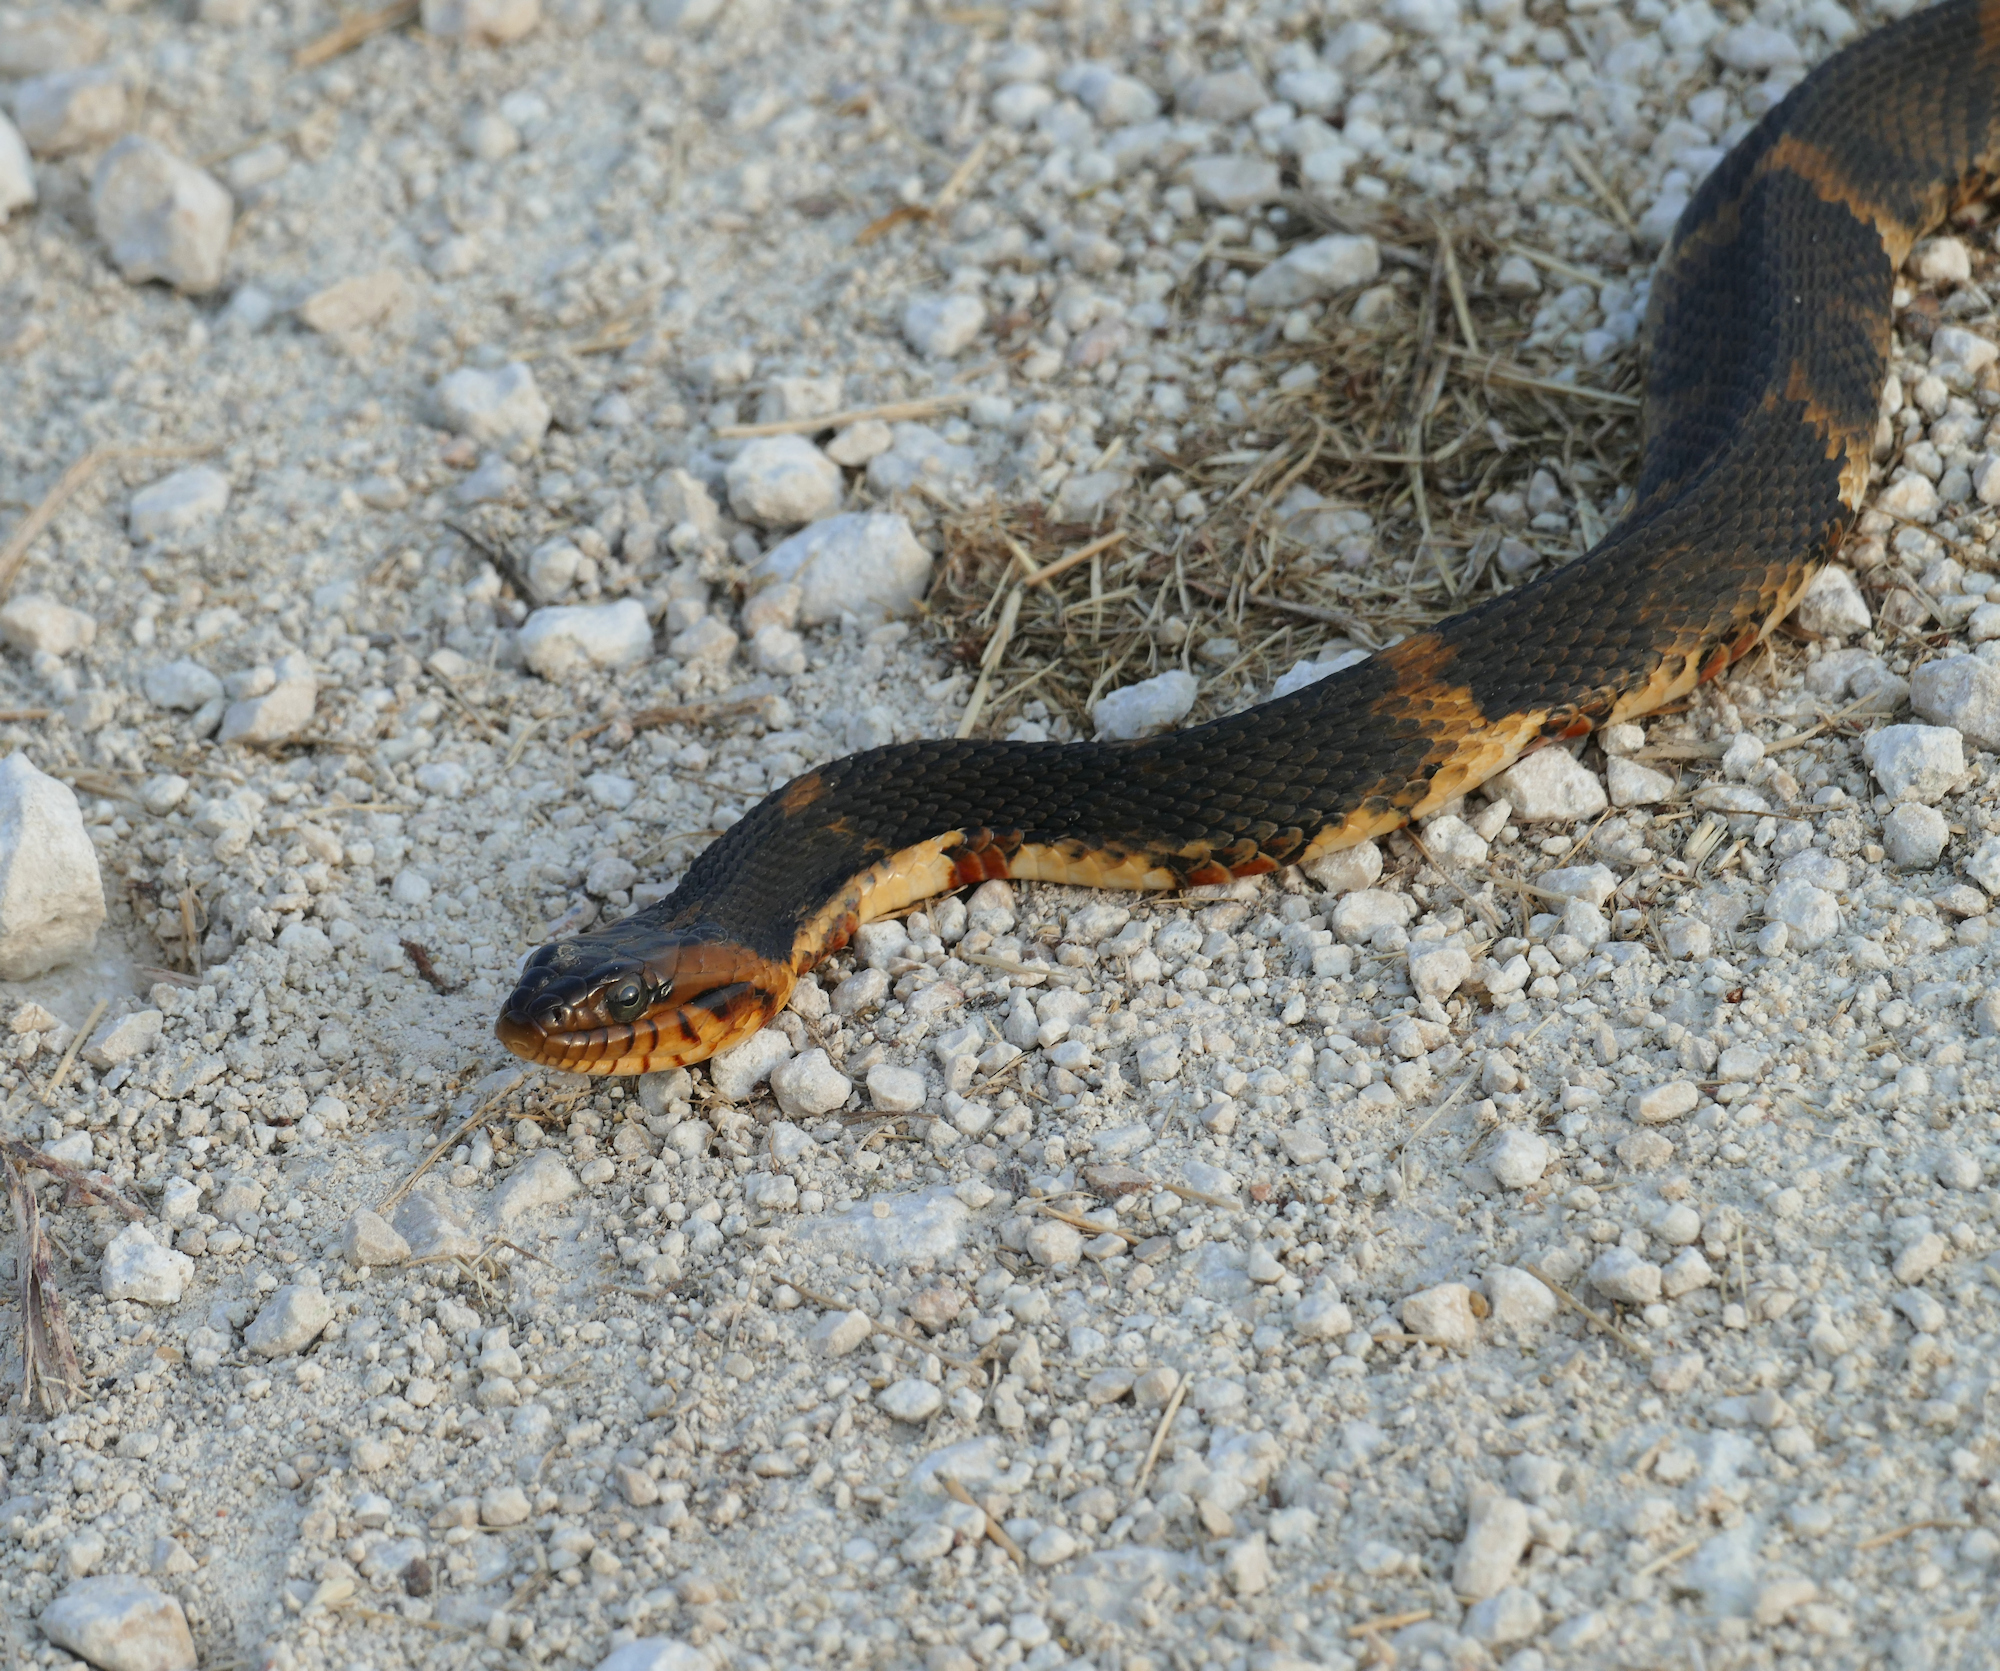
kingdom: Animalia
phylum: Chordata
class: Squamata
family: Colubridae
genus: Nerodia
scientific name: Nerodia fasciata
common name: Southern water snake
